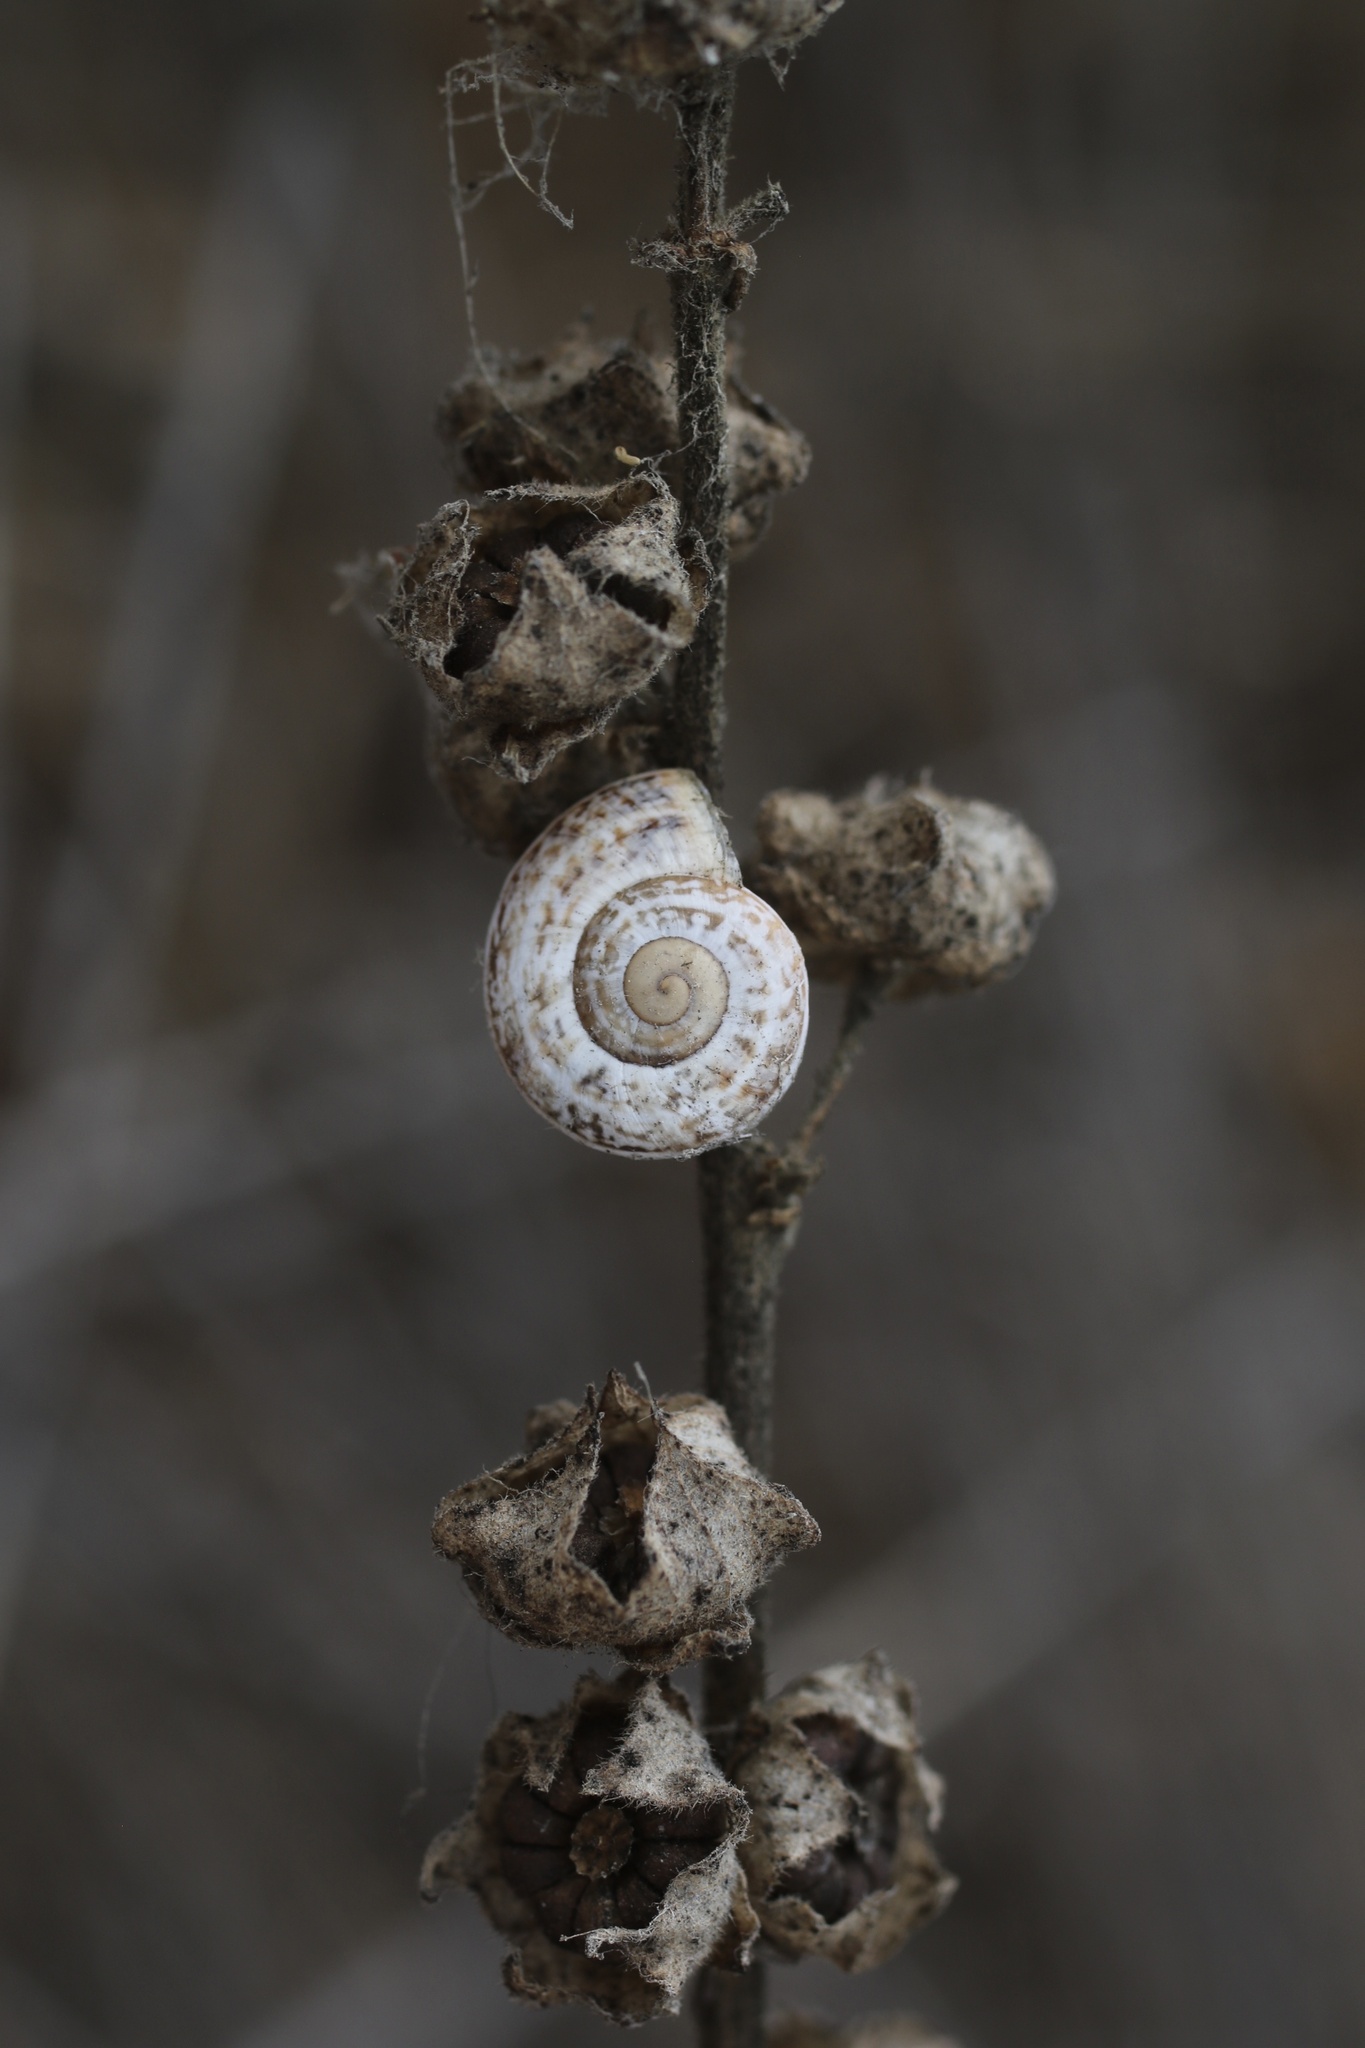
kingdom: Animalia
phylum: Mollusca
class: Gastropoda
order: Stylommatophora
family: Helicidae
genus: Otala
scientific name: Otala lactea
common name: Milk snail
